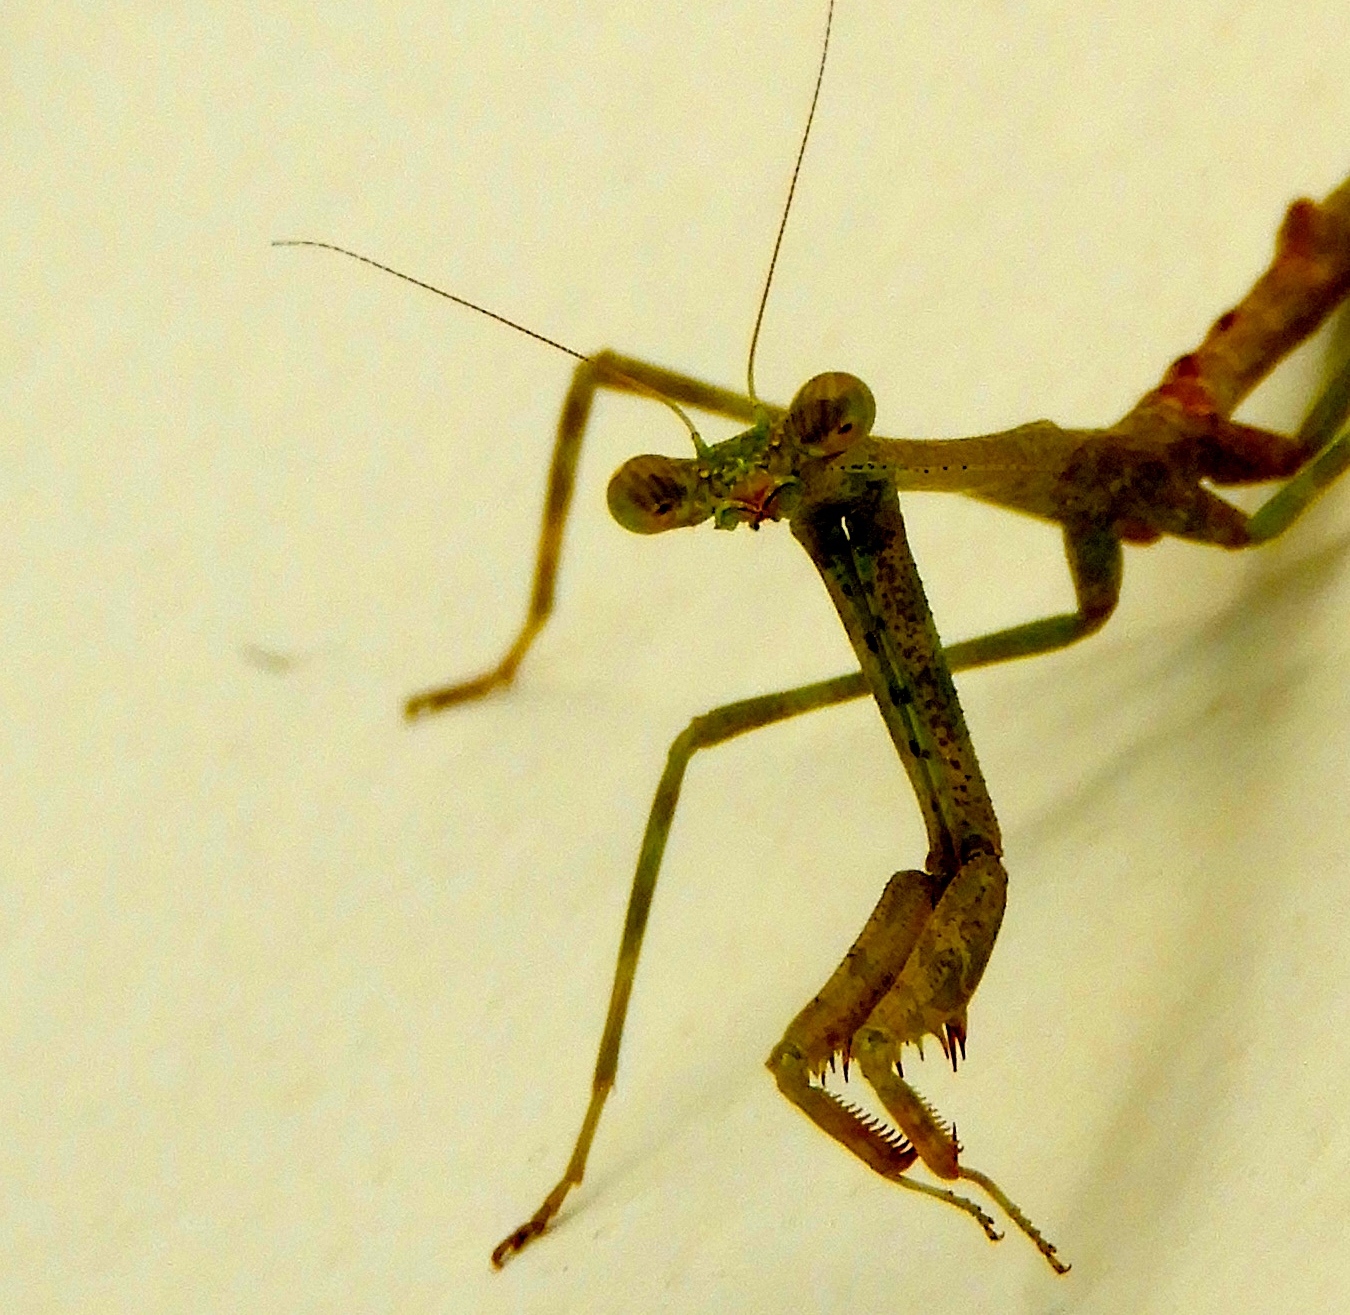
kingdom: Animalia
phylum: Arthropoda
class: Insecta
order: Mantodea
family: Mantidae
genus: Stagmomantis
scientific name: Stagmomantis carolina
